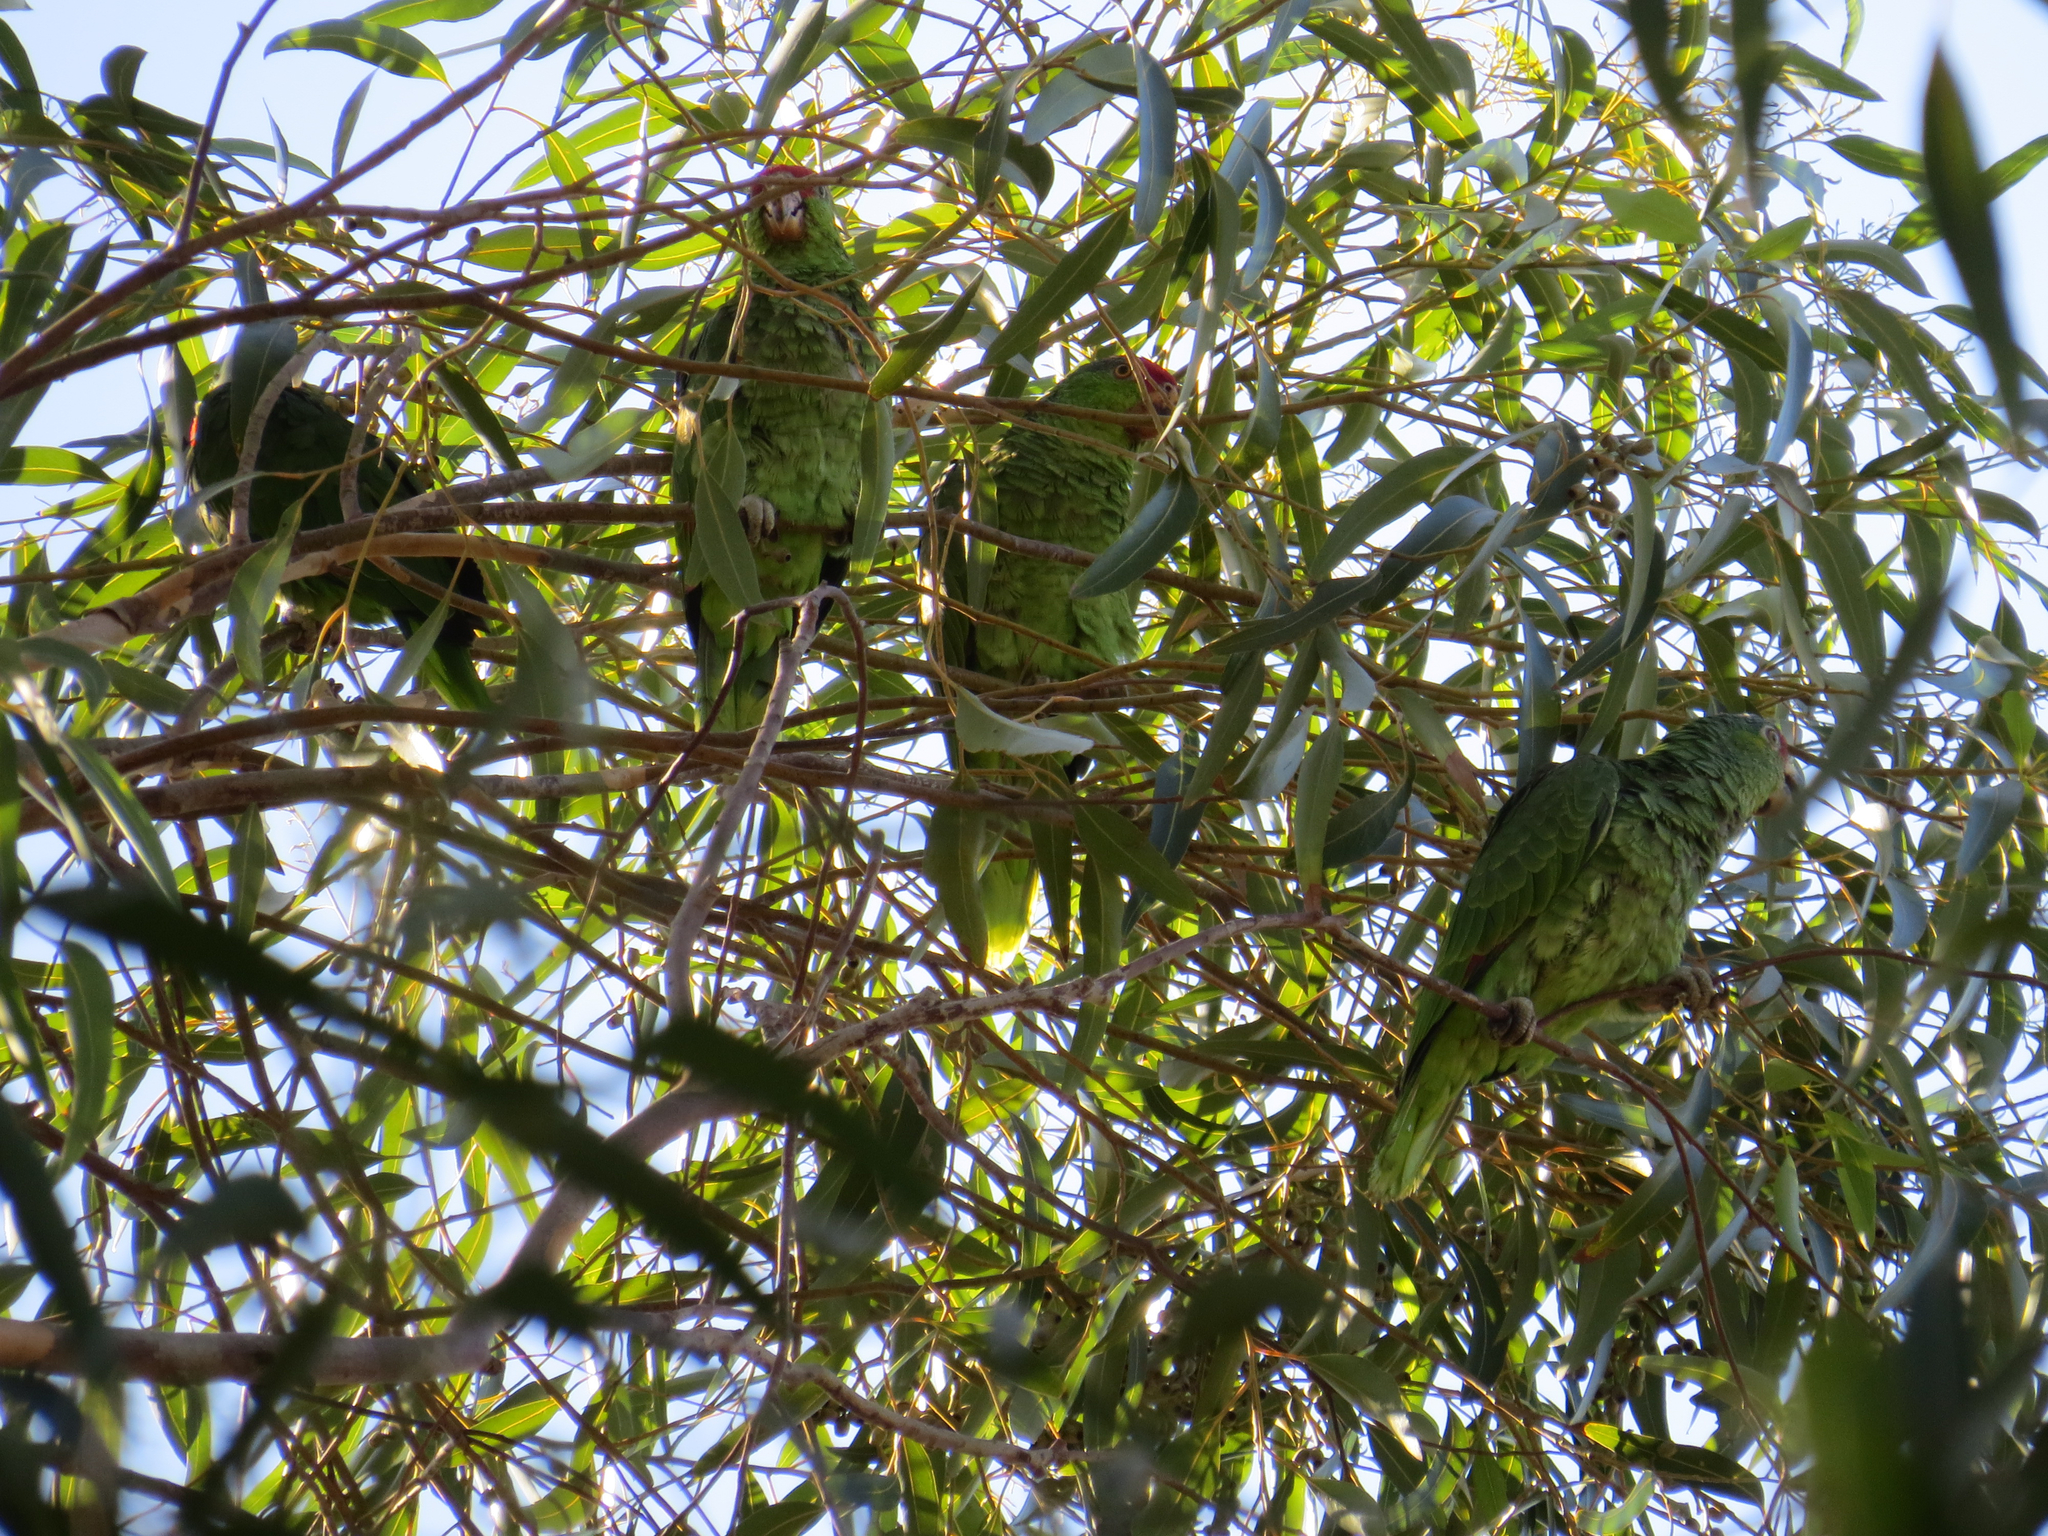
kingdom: Animalia
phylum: Chordata
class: Aves
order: Psittaciformes
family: Psittacidae
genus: Amazona
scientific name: Amazona viridigenalis
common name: Red-crowned amazon
